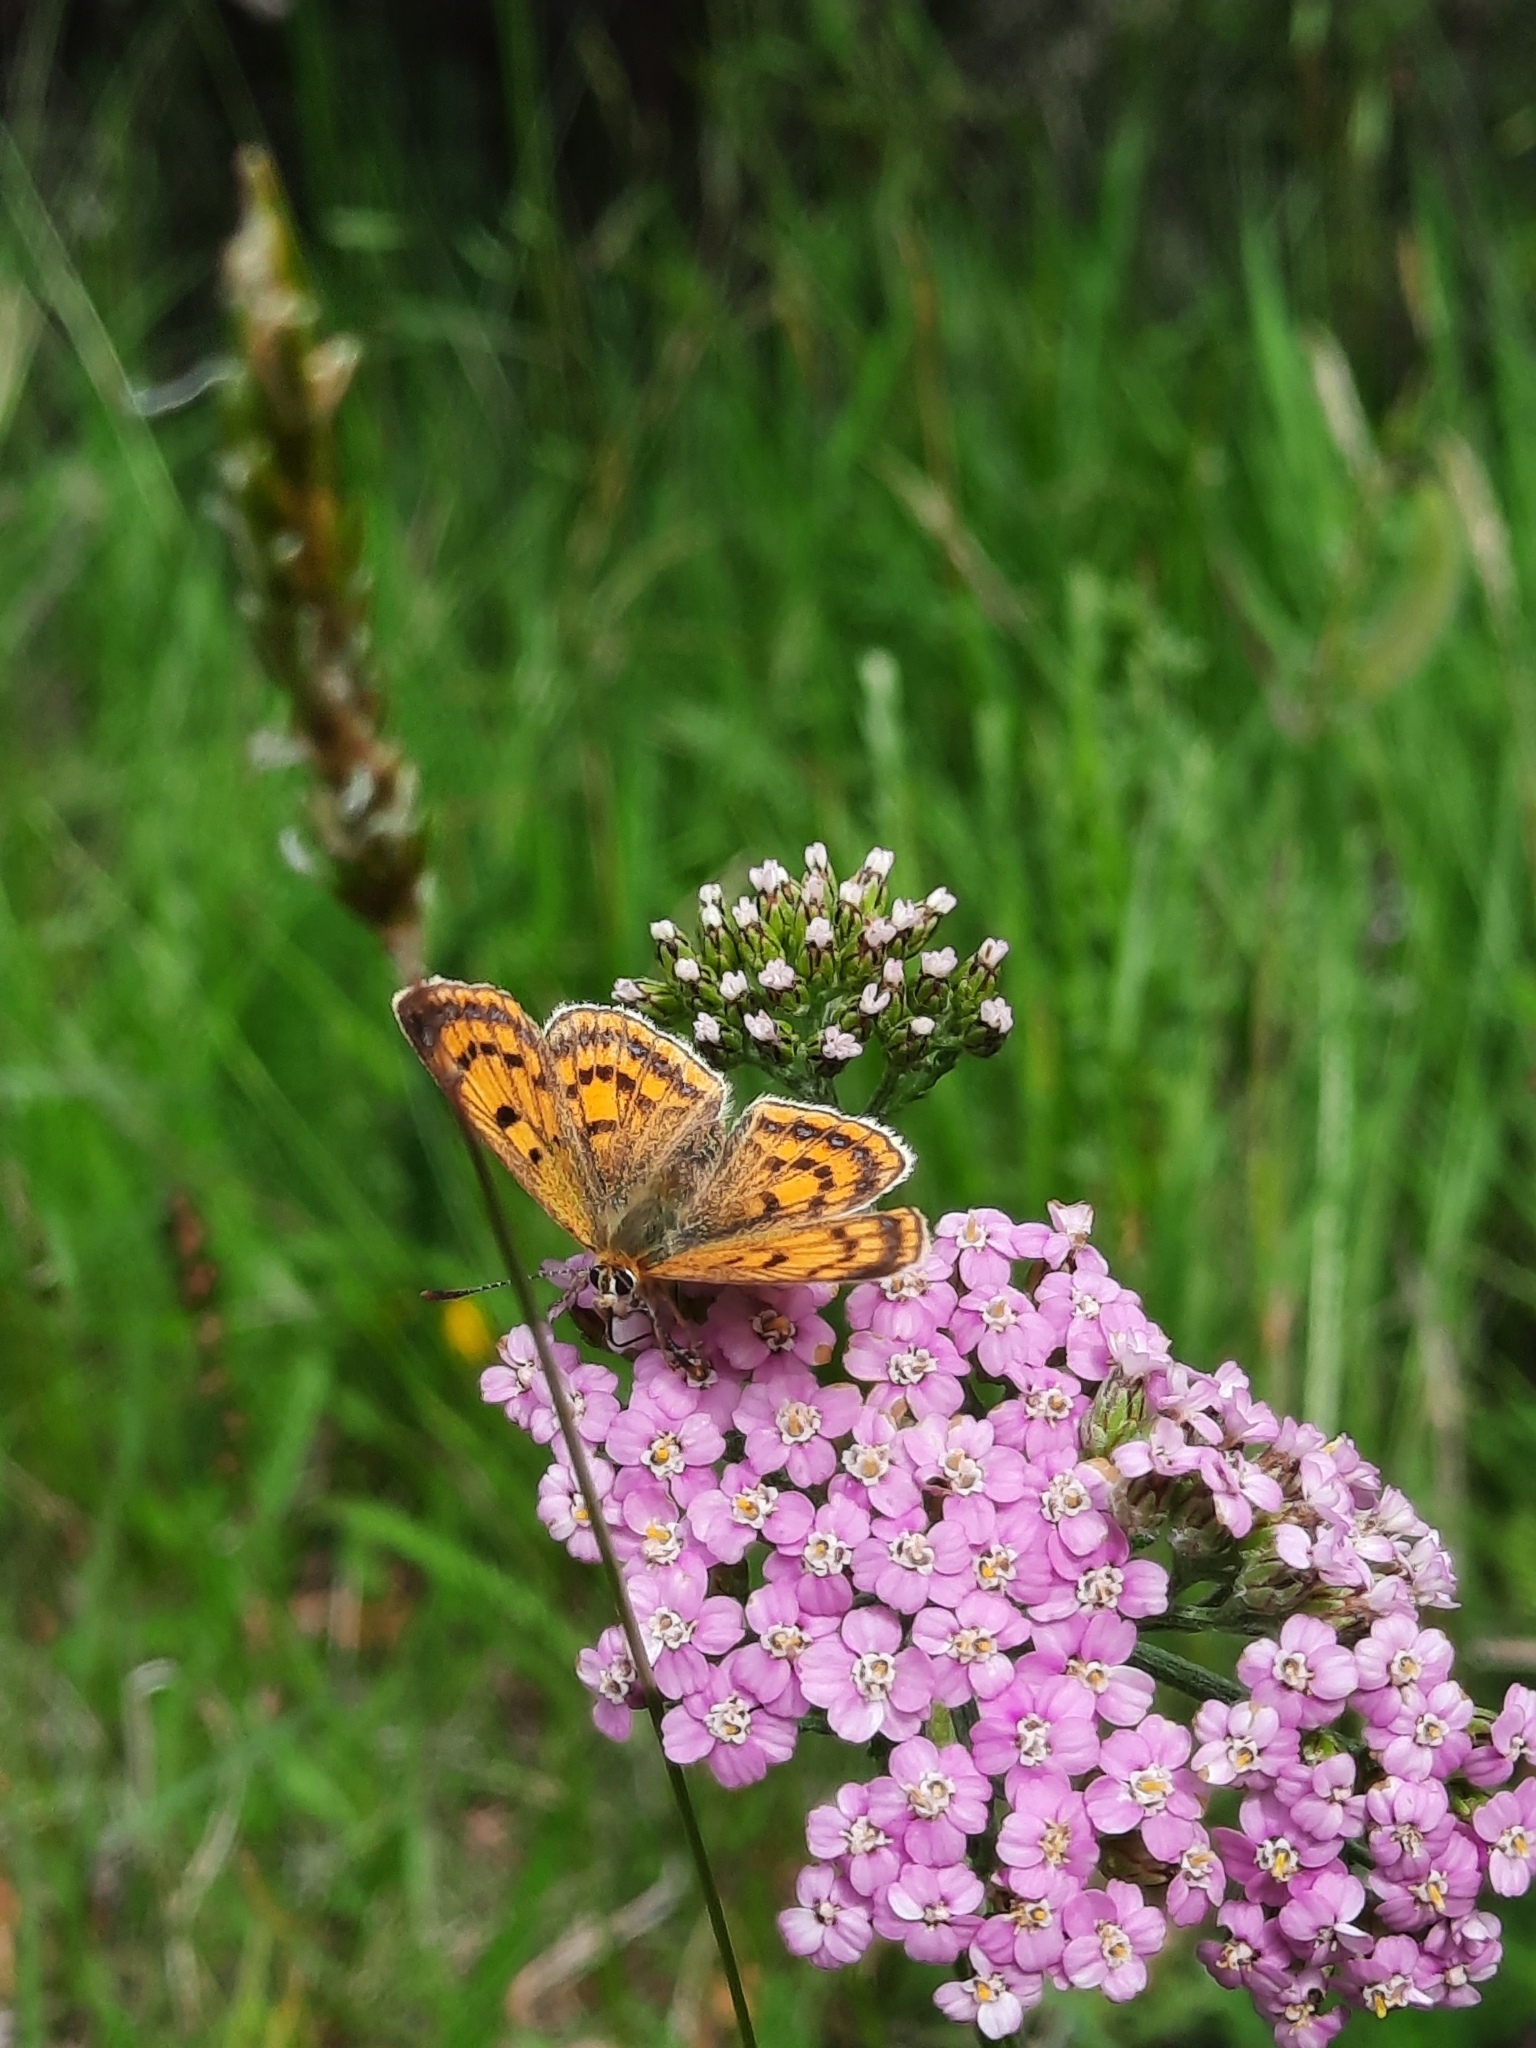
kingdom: Animalia
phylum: Arthropoda
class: Insecta
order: Lepidoptera
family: Lycaenidae
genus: Lycaena
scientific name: Lycaena
